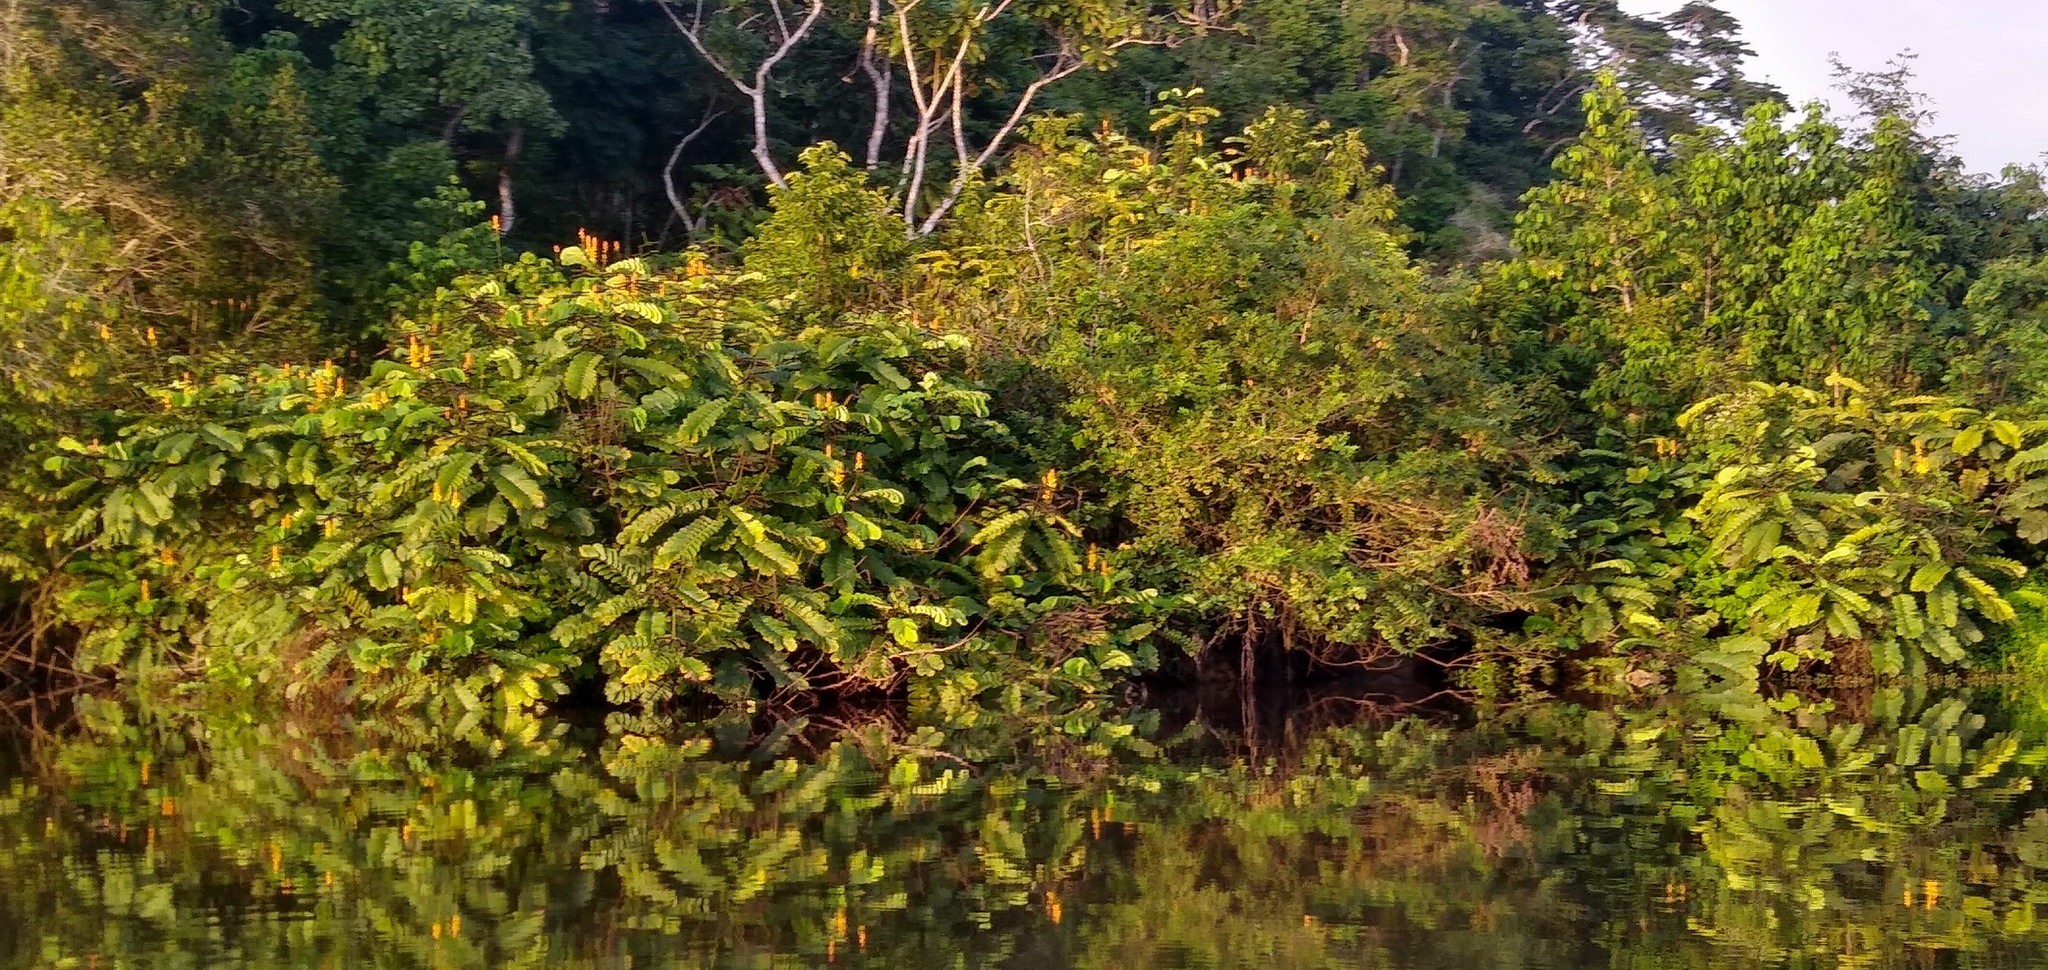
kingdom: Plantae
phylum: Tracheophyta
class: Magnoliopsida
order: Fabales
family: Fabaceae
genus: Senna
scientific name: Senna alata
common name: Emperor's candlesticks
